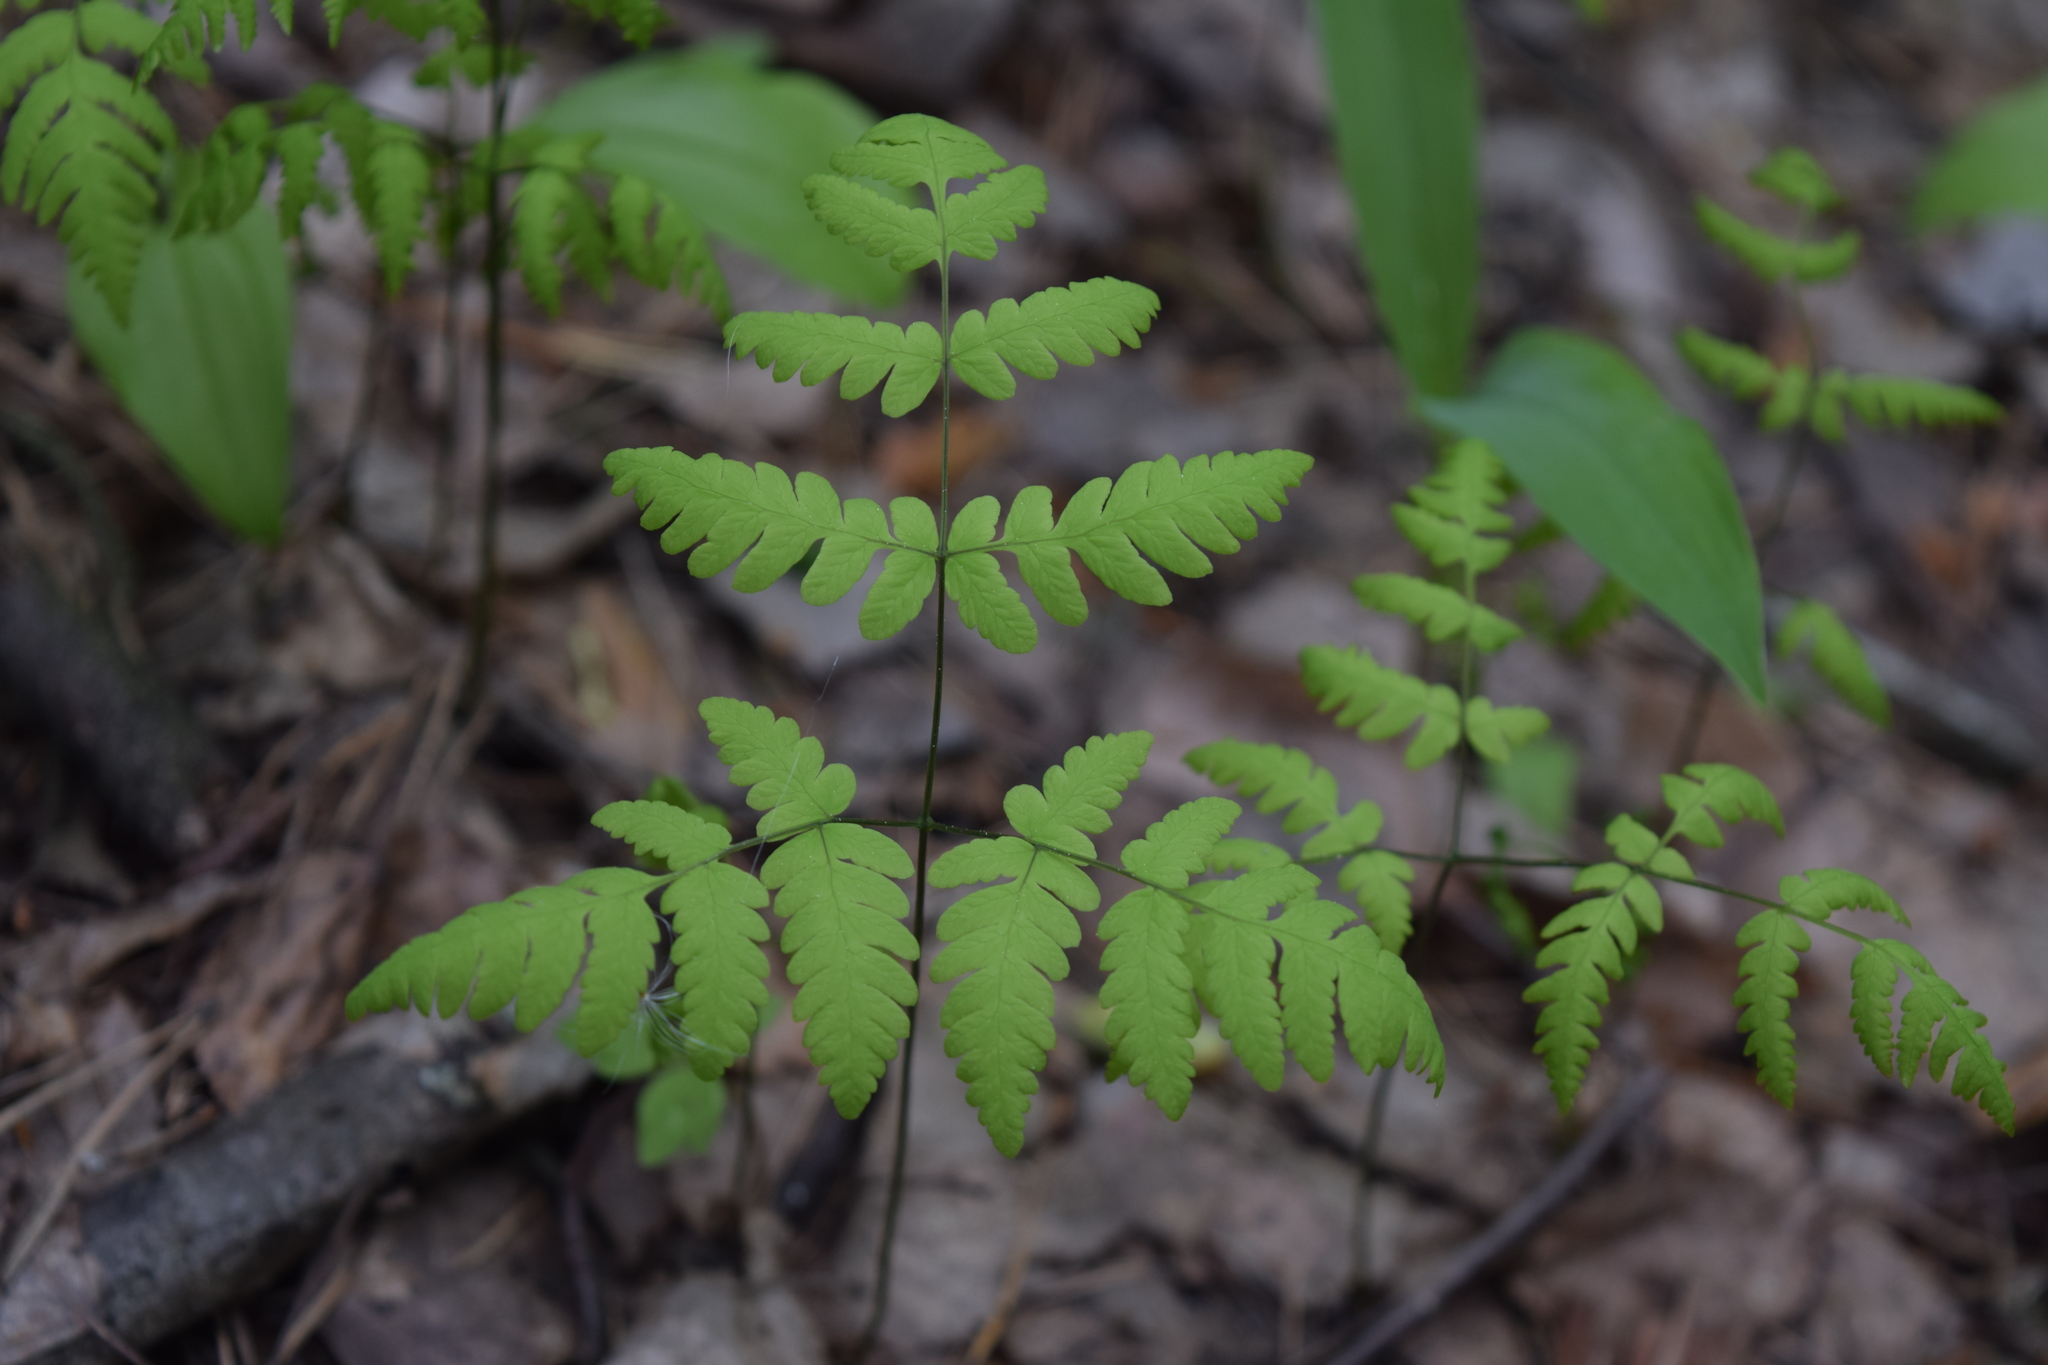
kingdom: Plantae
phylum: Tracheophyta
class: Polypodiopsida
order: Polypodiales
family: Cystopteridaceae
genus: Gymnocarpium
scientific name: Gymnocarpium dryopteris
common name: Oak fern
